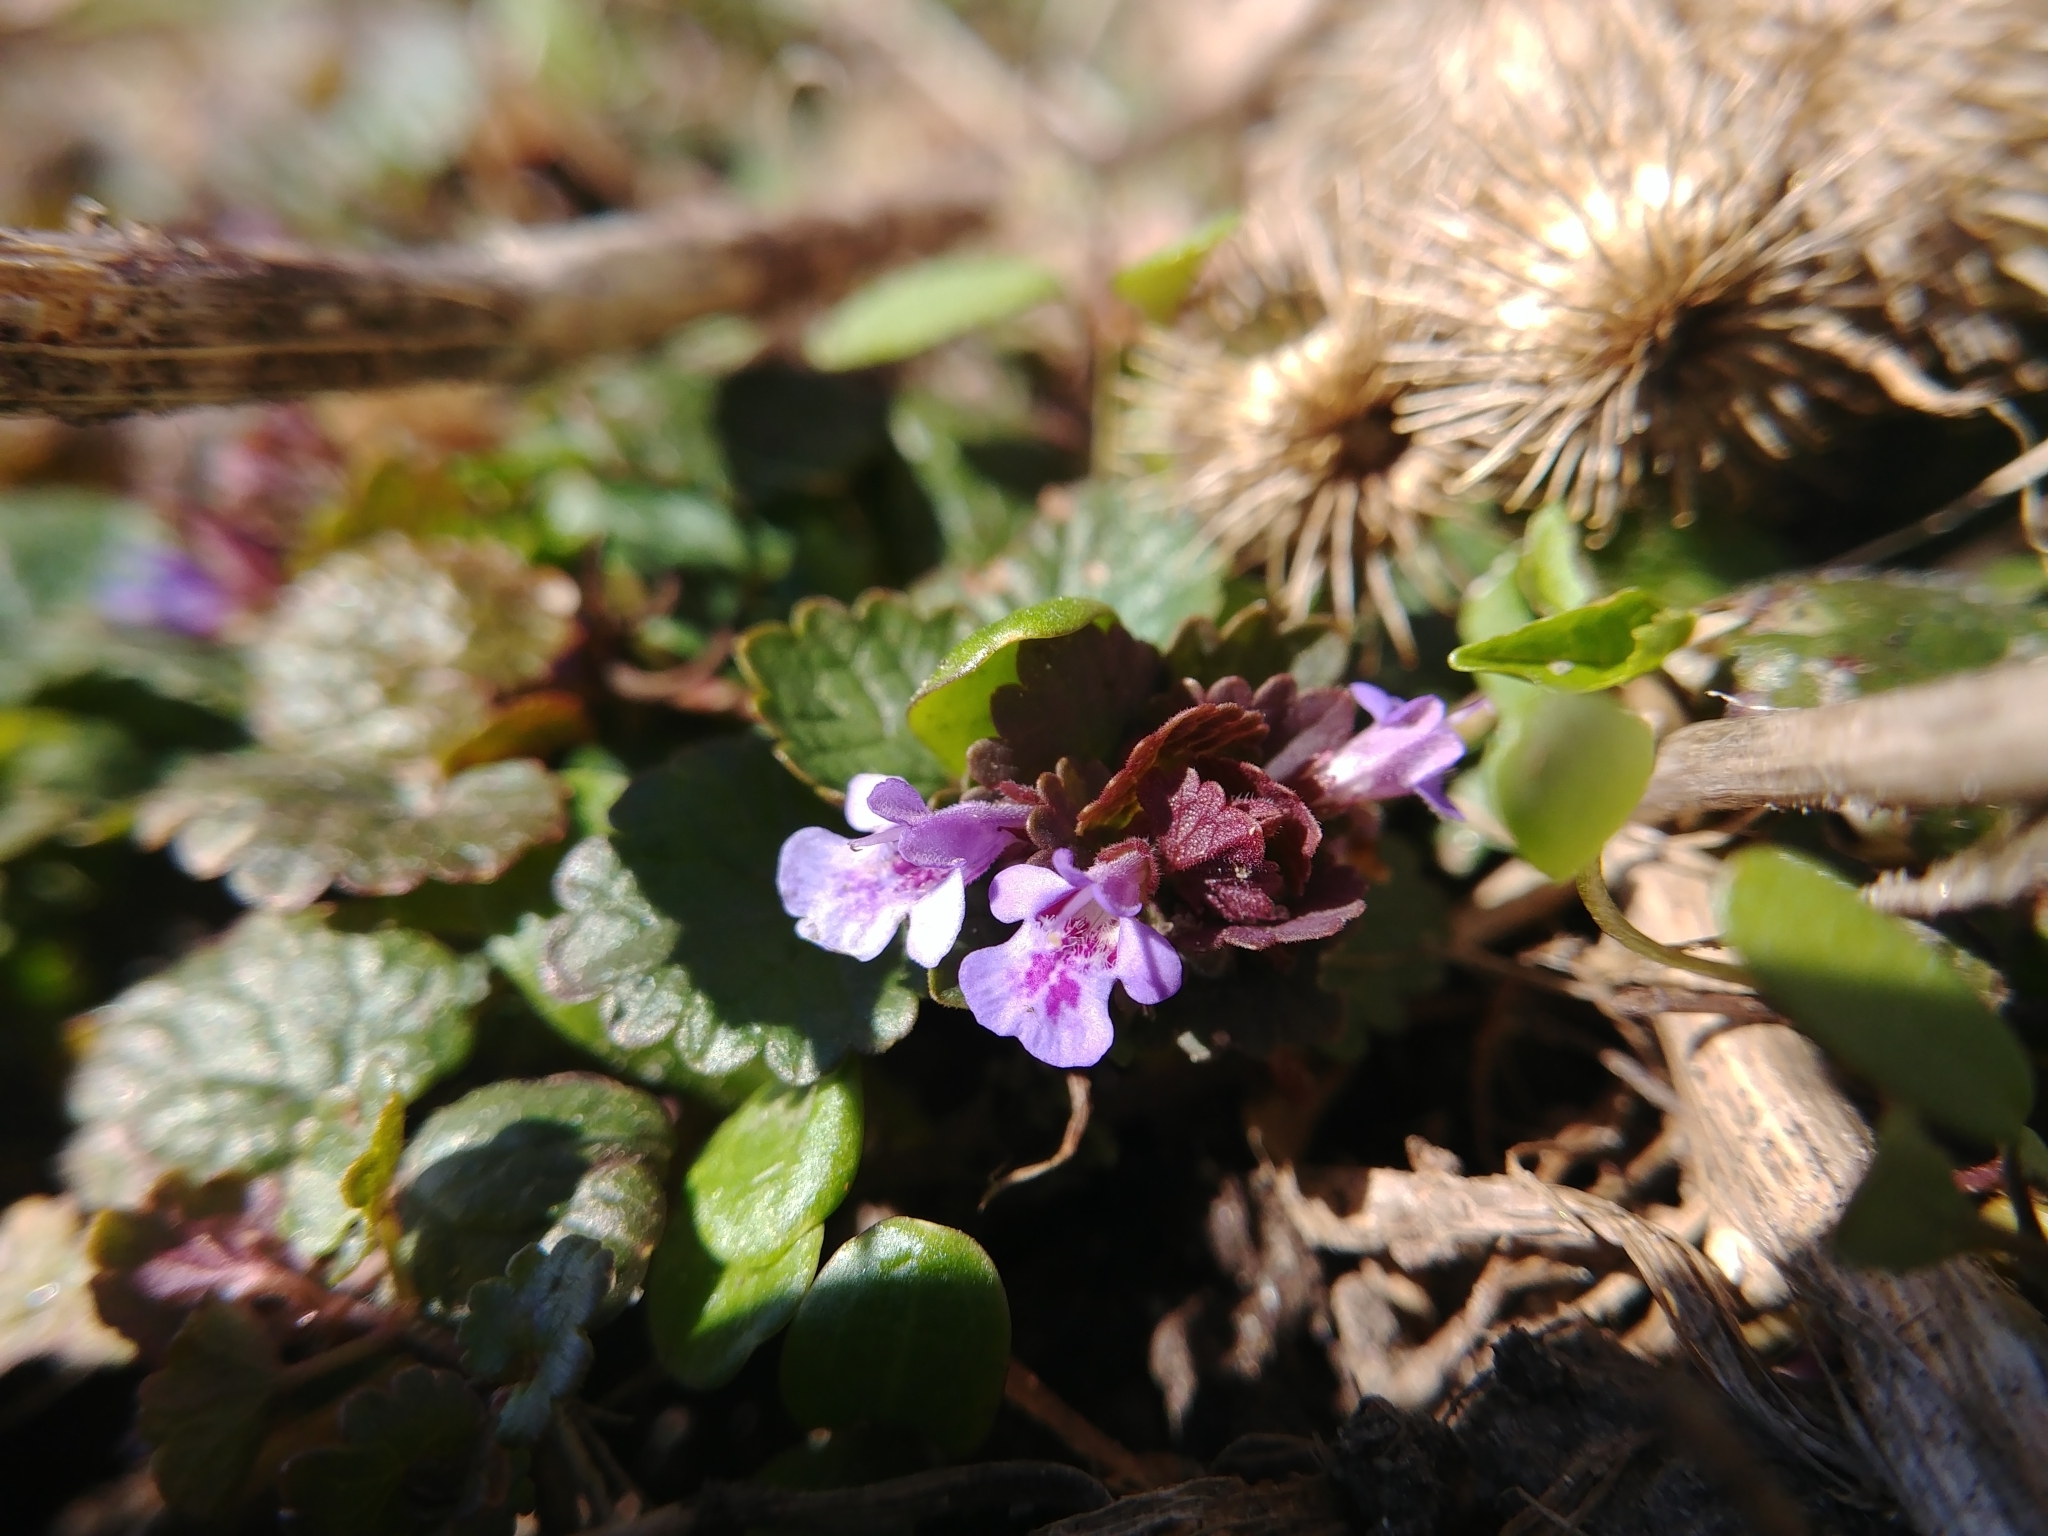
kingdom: Plantae
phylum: Tracheophyta
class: Magnoliopsida
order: Lamiales
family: Lamiaceae
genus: Glechoma
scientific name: Glechoma hederacea
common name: Ground ivy
